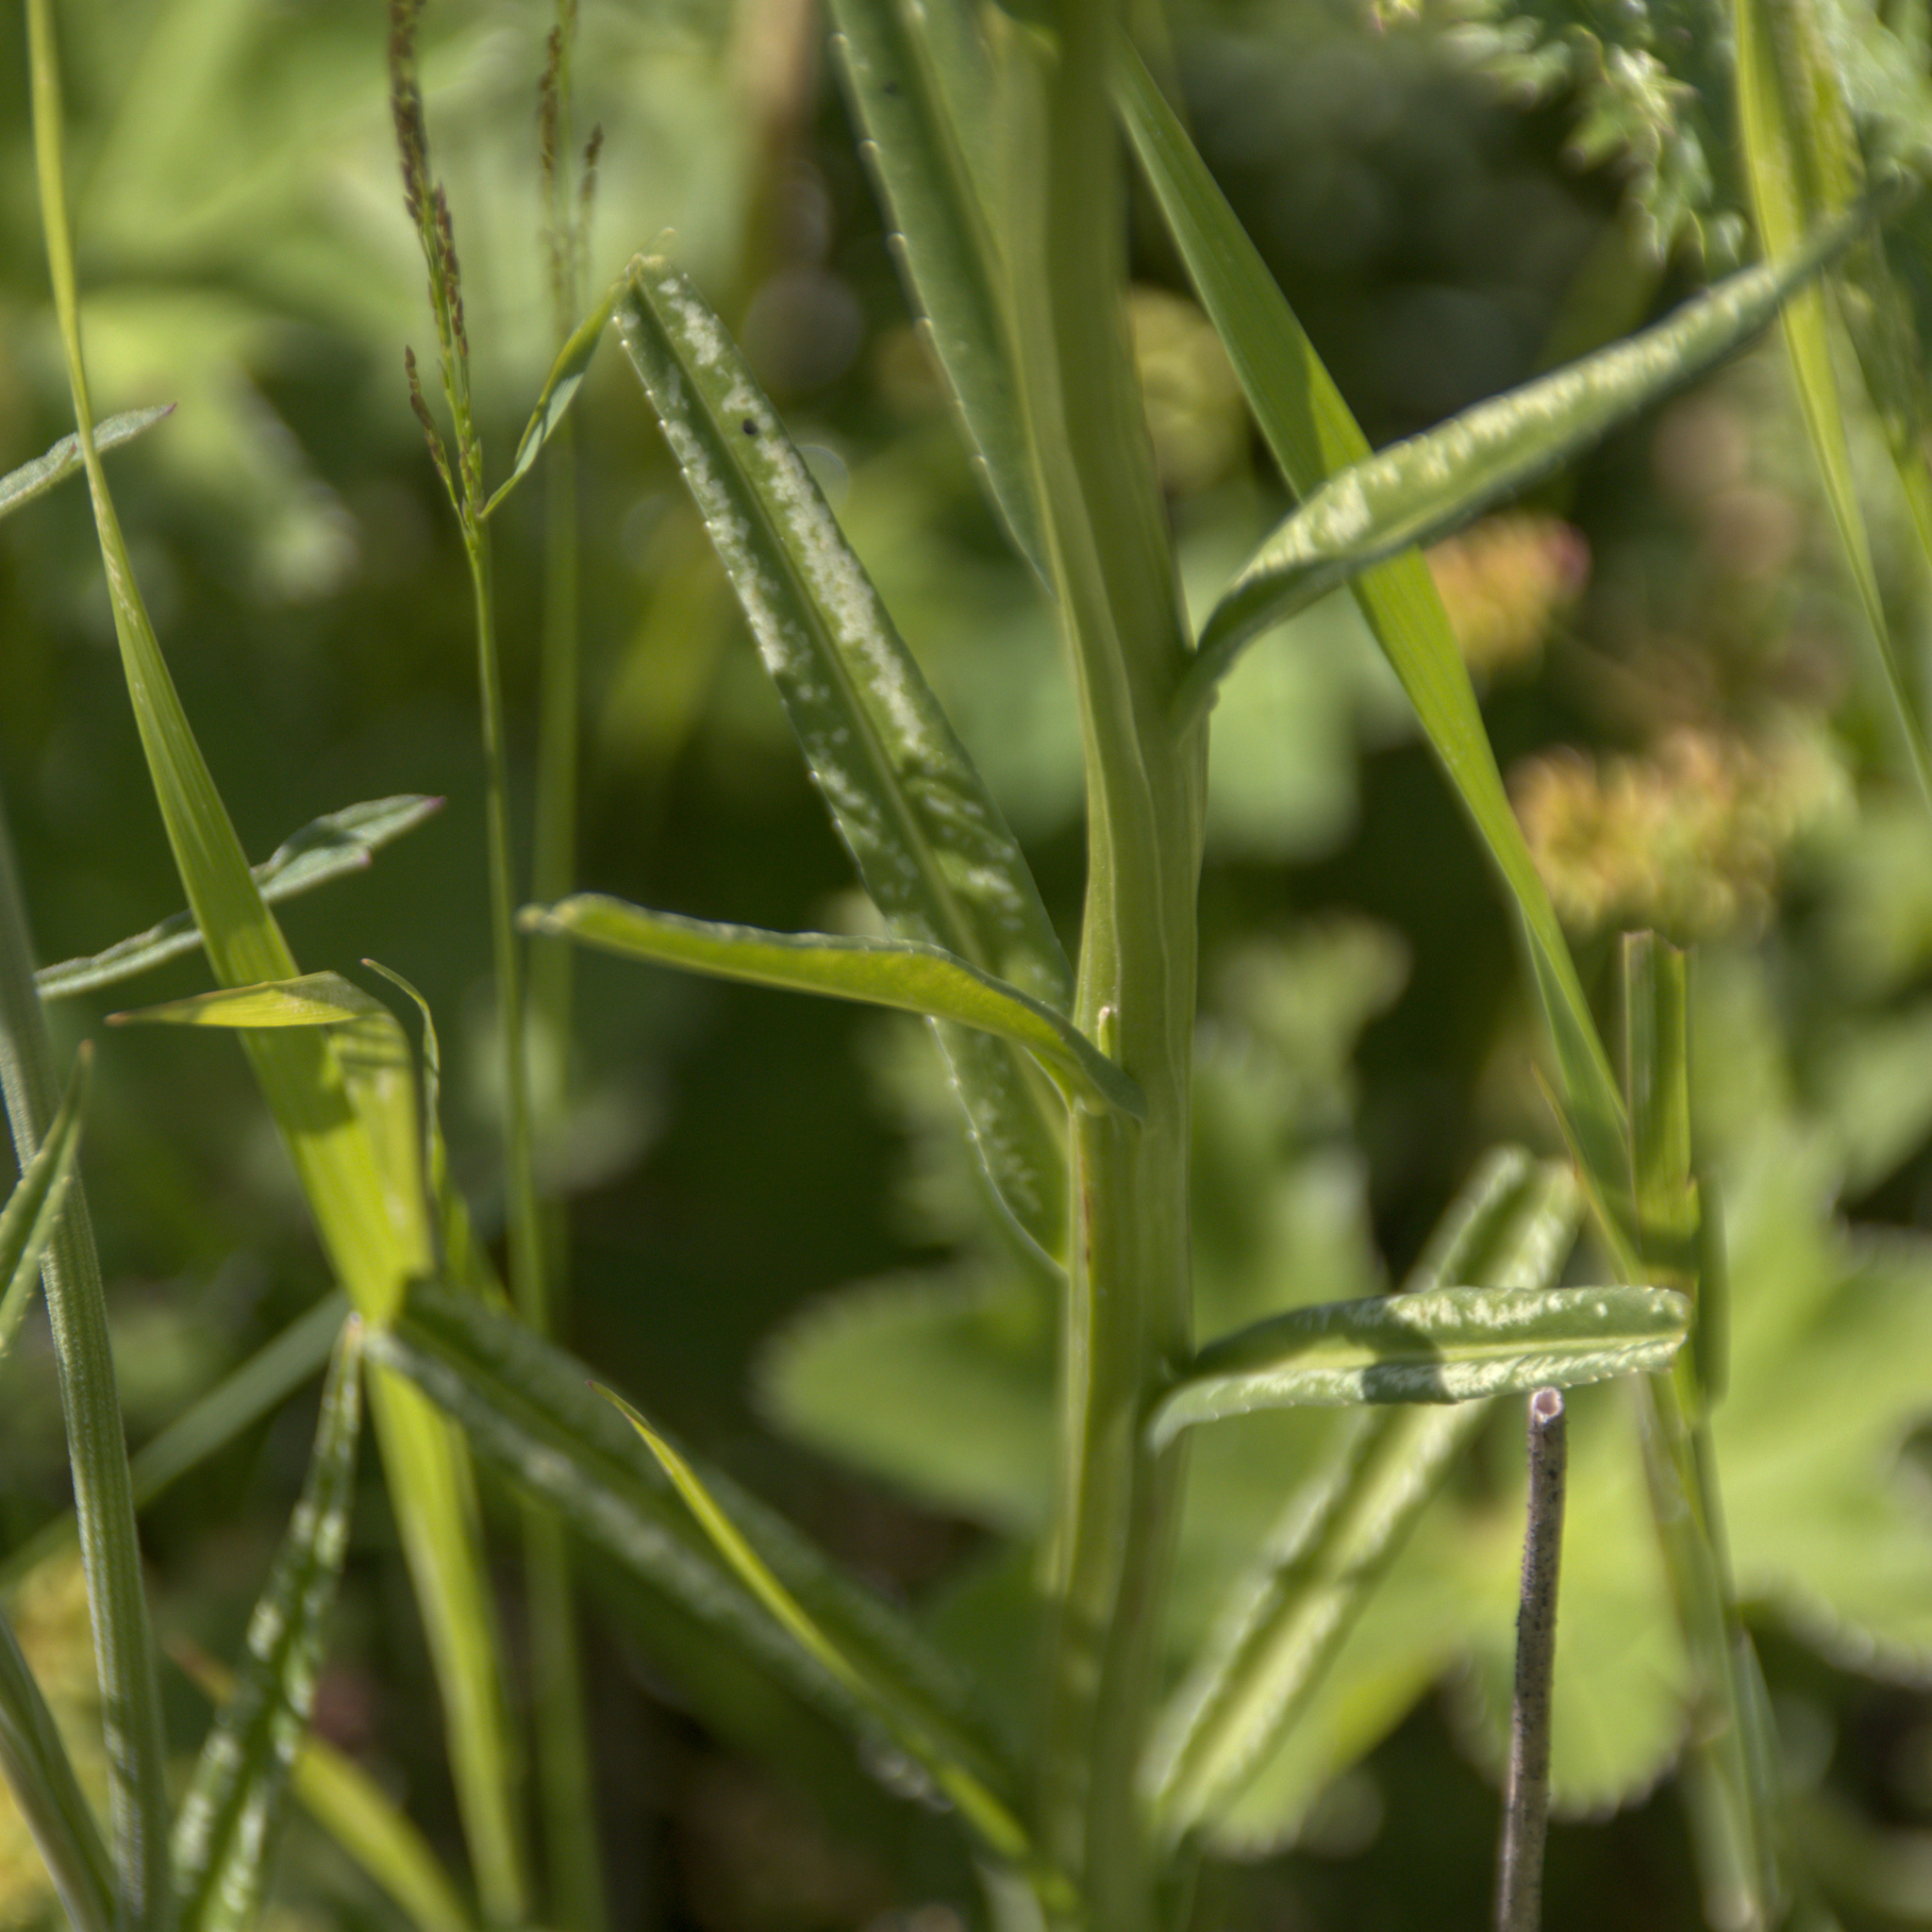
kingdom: Plantae
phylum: Tracheophyta
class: Magnoliopsida
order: Asterales
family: Campanulaceae
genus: Campanula
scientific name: Campanula persicifolia
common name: Peach-leaved bellflower
